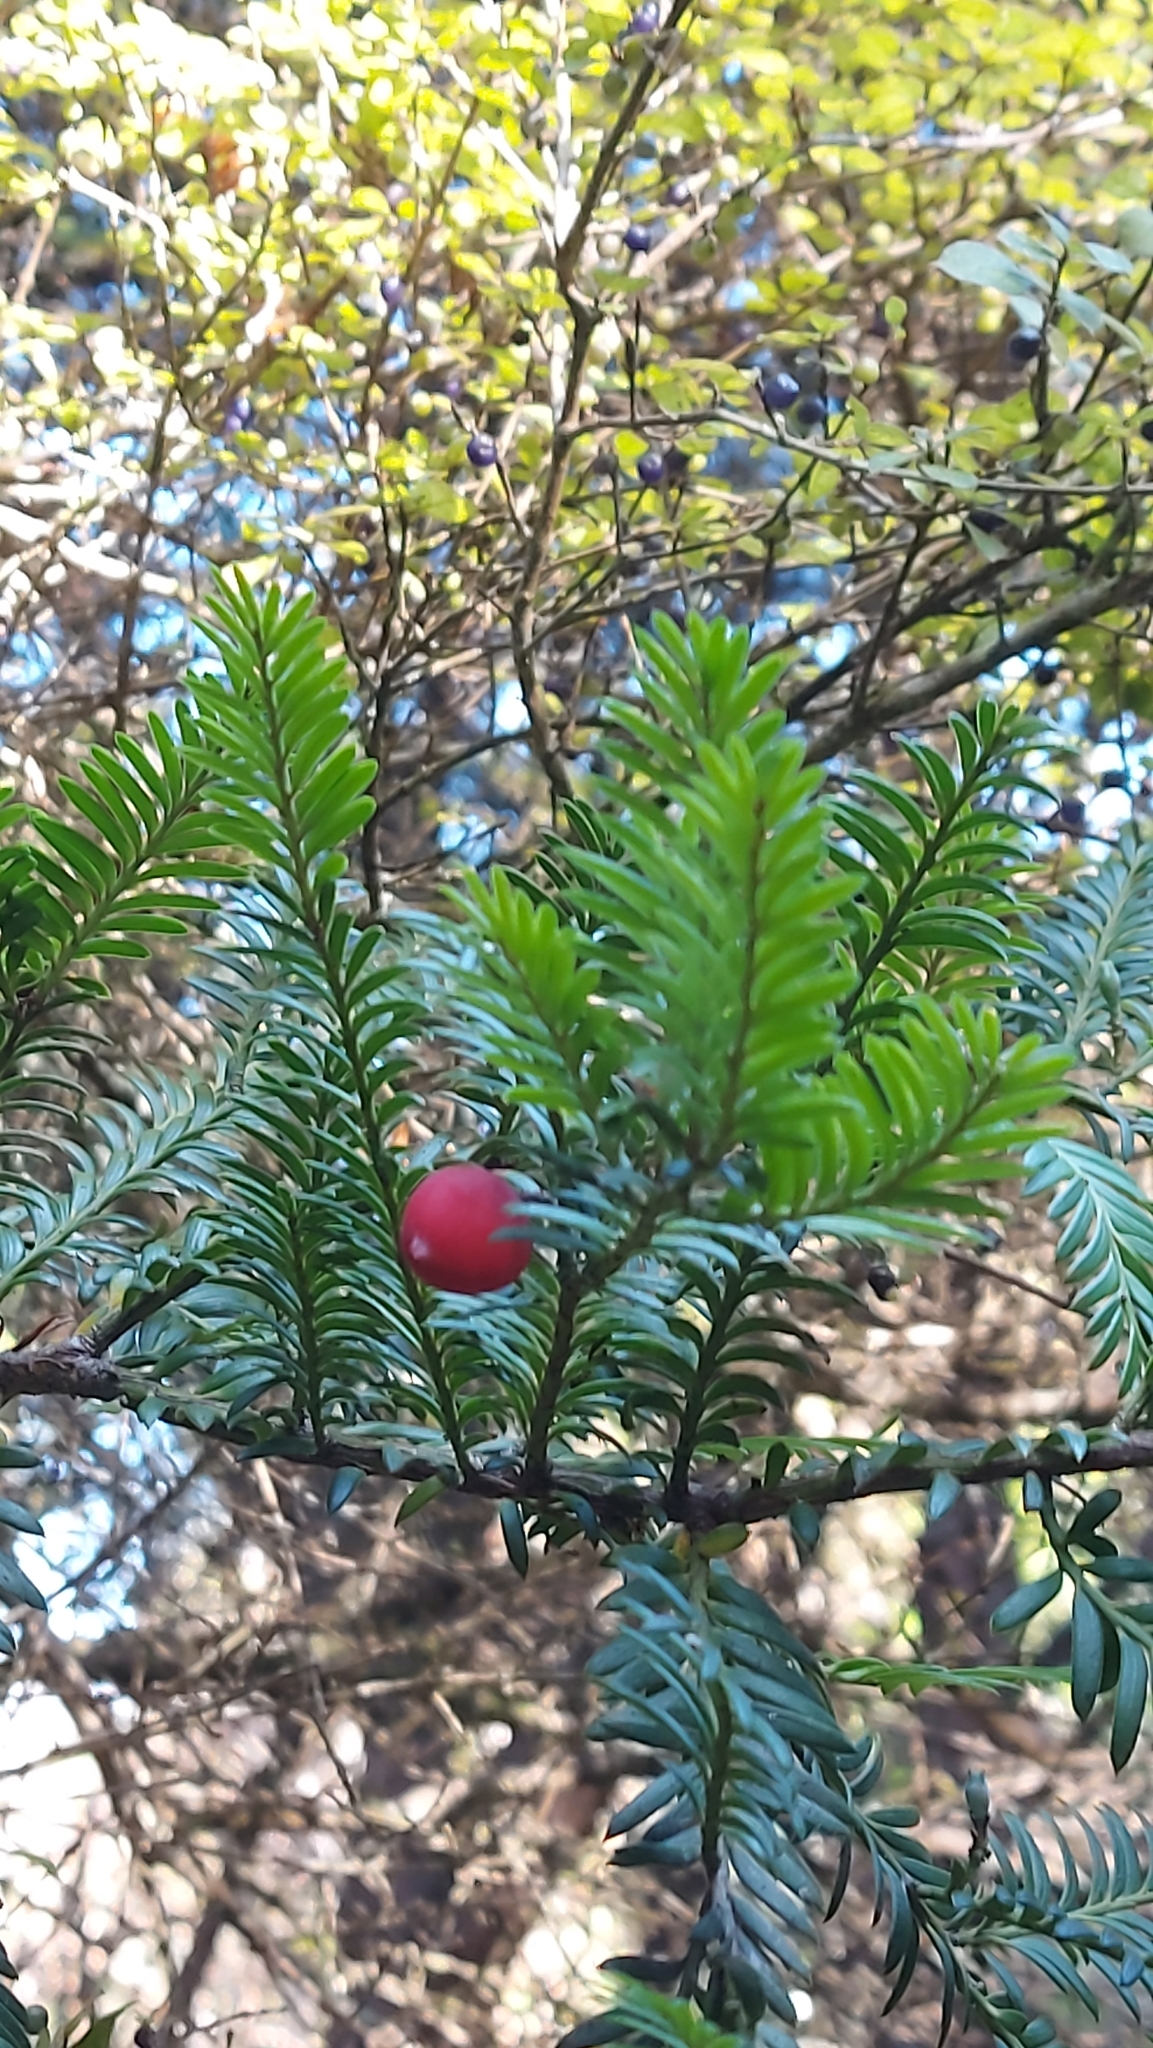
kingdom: Plantae
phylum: Tracheophyta
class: Pinopsida
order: Pinales
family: Podocarpaceae
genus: Prumnopitys
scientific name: Prumnopitys ferruginea
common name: Brown pine
